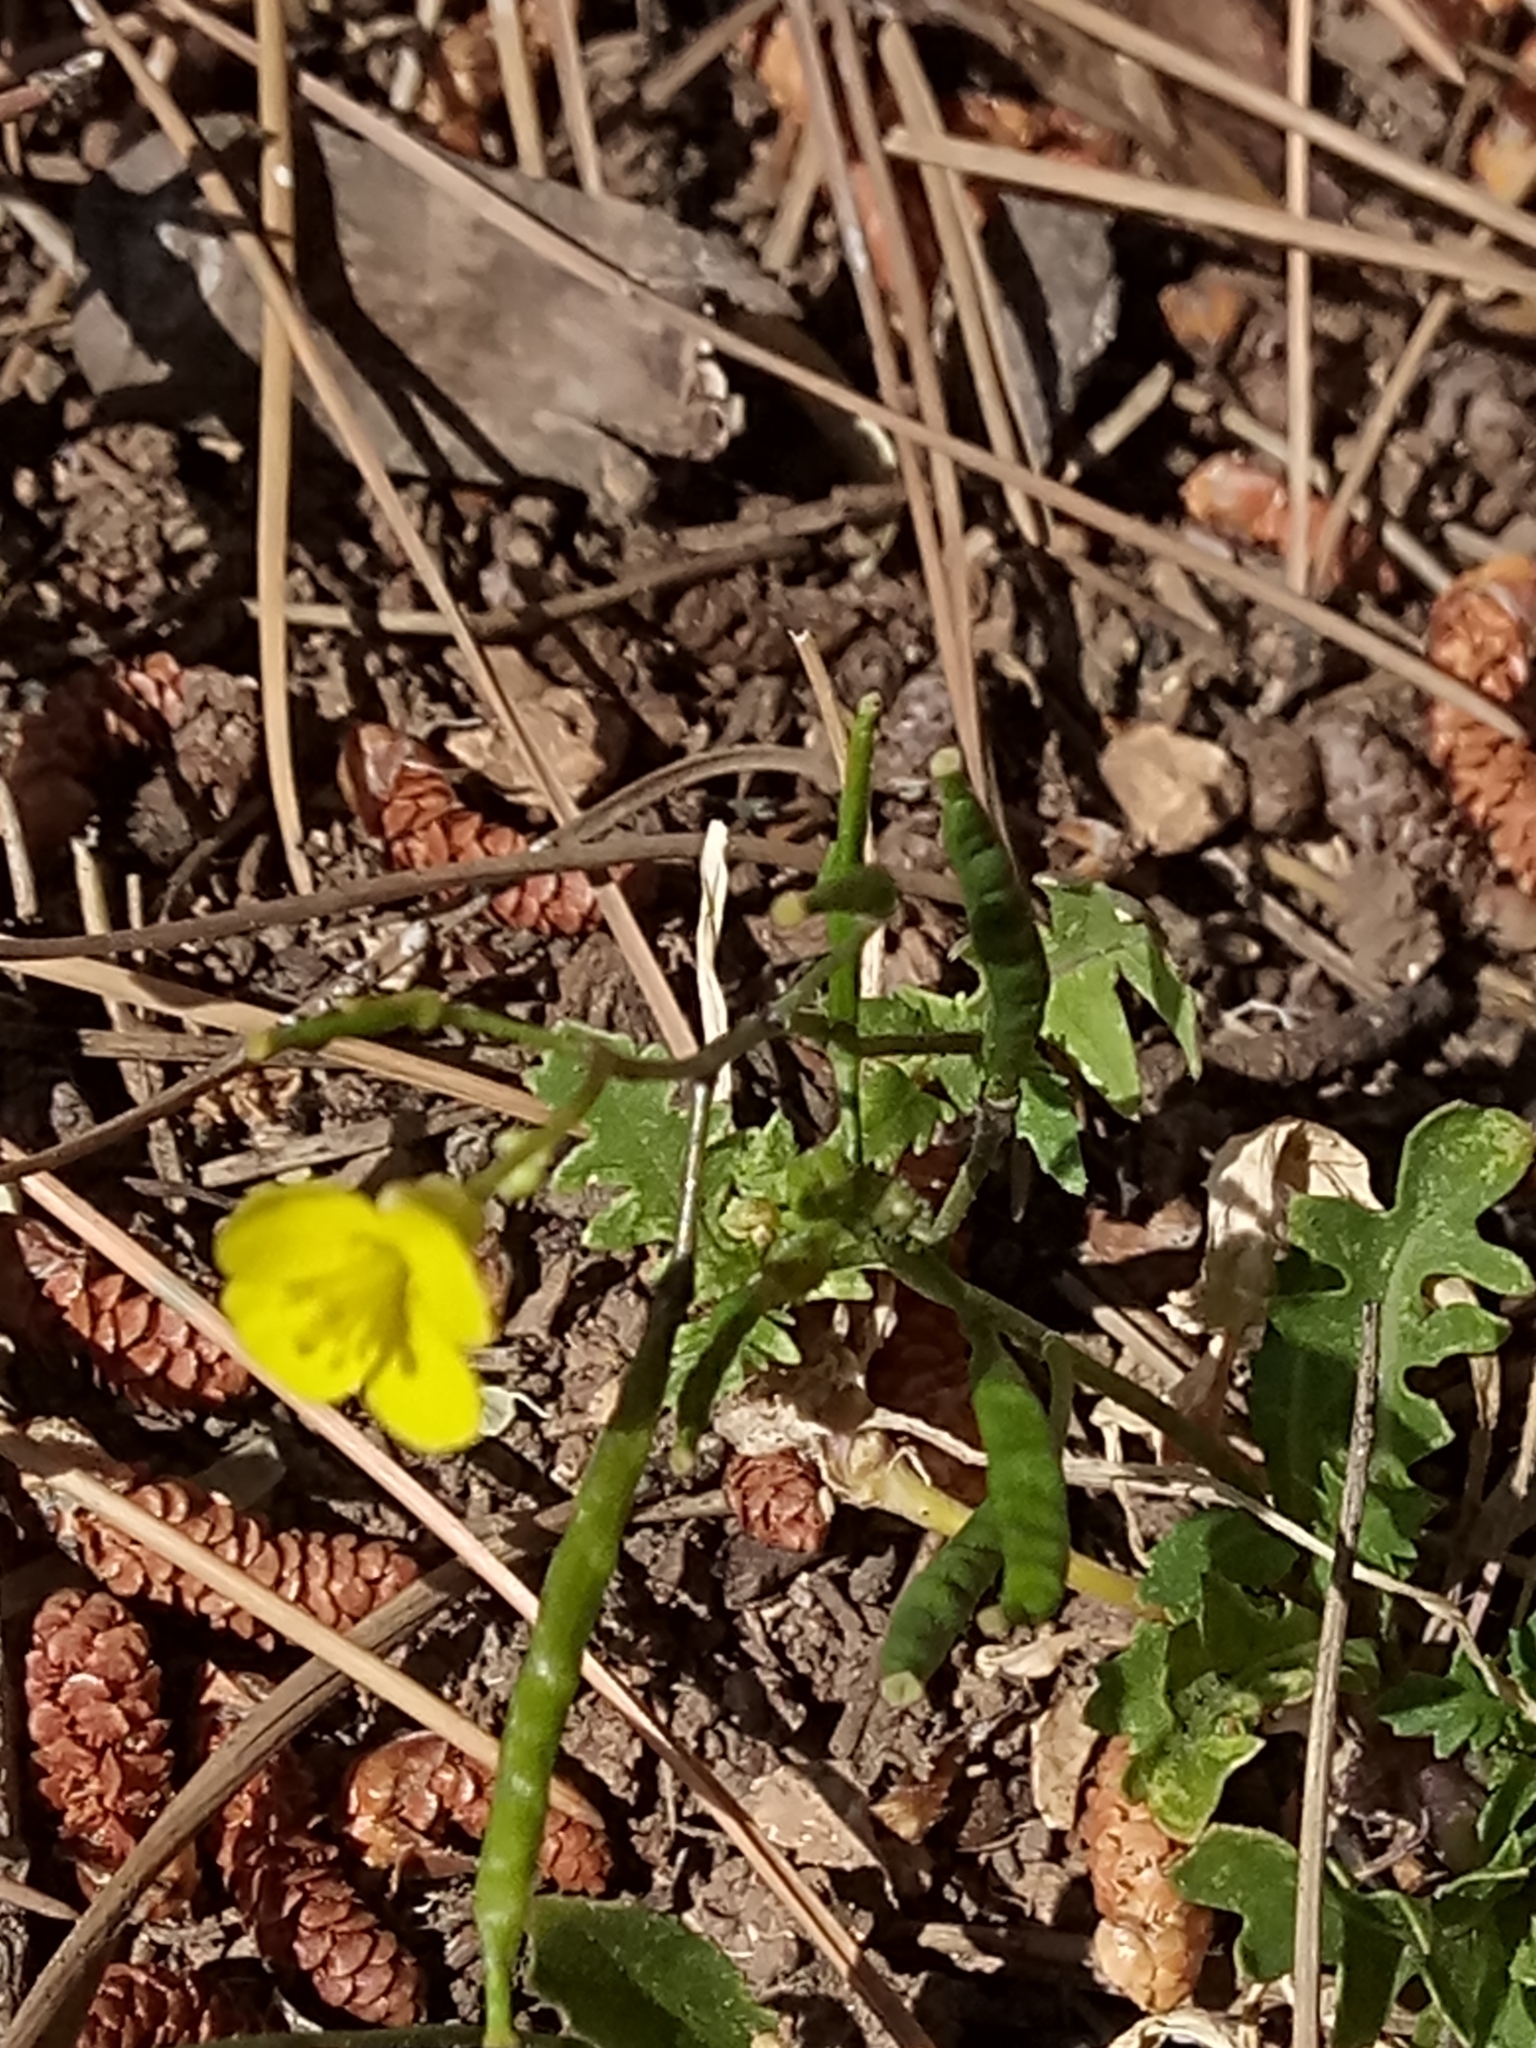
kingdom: Plantae
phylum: Tracheophyta
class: Magnoliopsida
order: Brassicales
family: Brassicaceae
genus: Diplotaxis
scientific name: Diplotaxis muralis
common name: Annual wall-rocket
